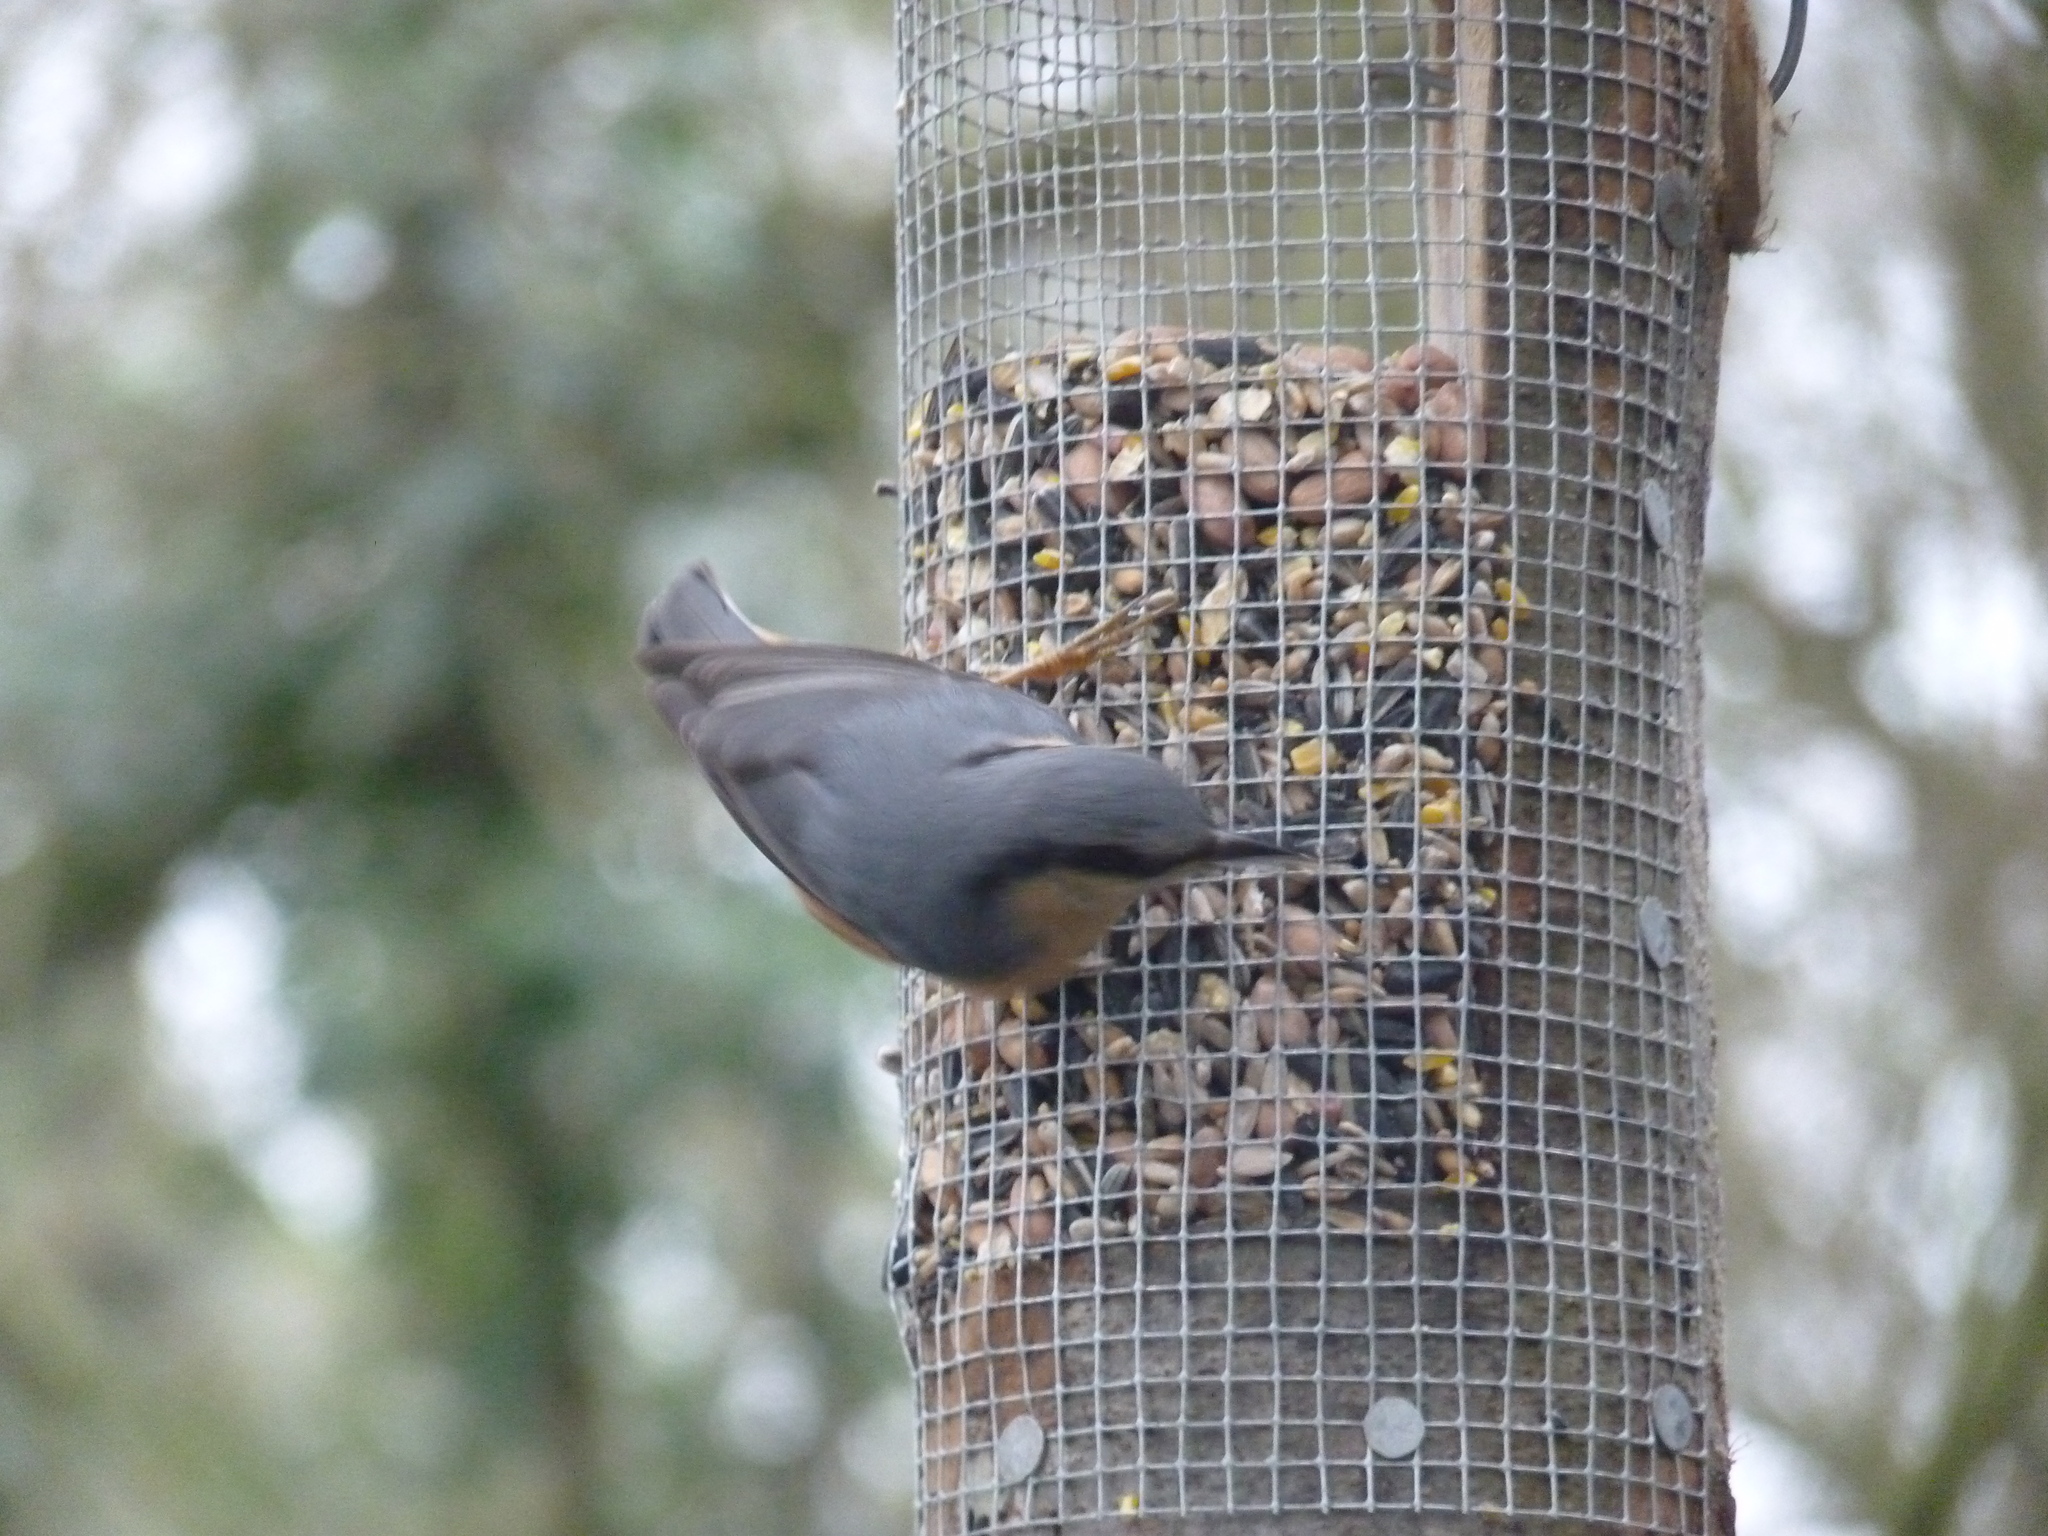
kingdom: Animalia
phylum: Chordata
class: Aves
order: Passeriformes
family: Sittidae
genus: Sitta
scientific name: Sitta europaea
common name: Eurasian nuthatch
